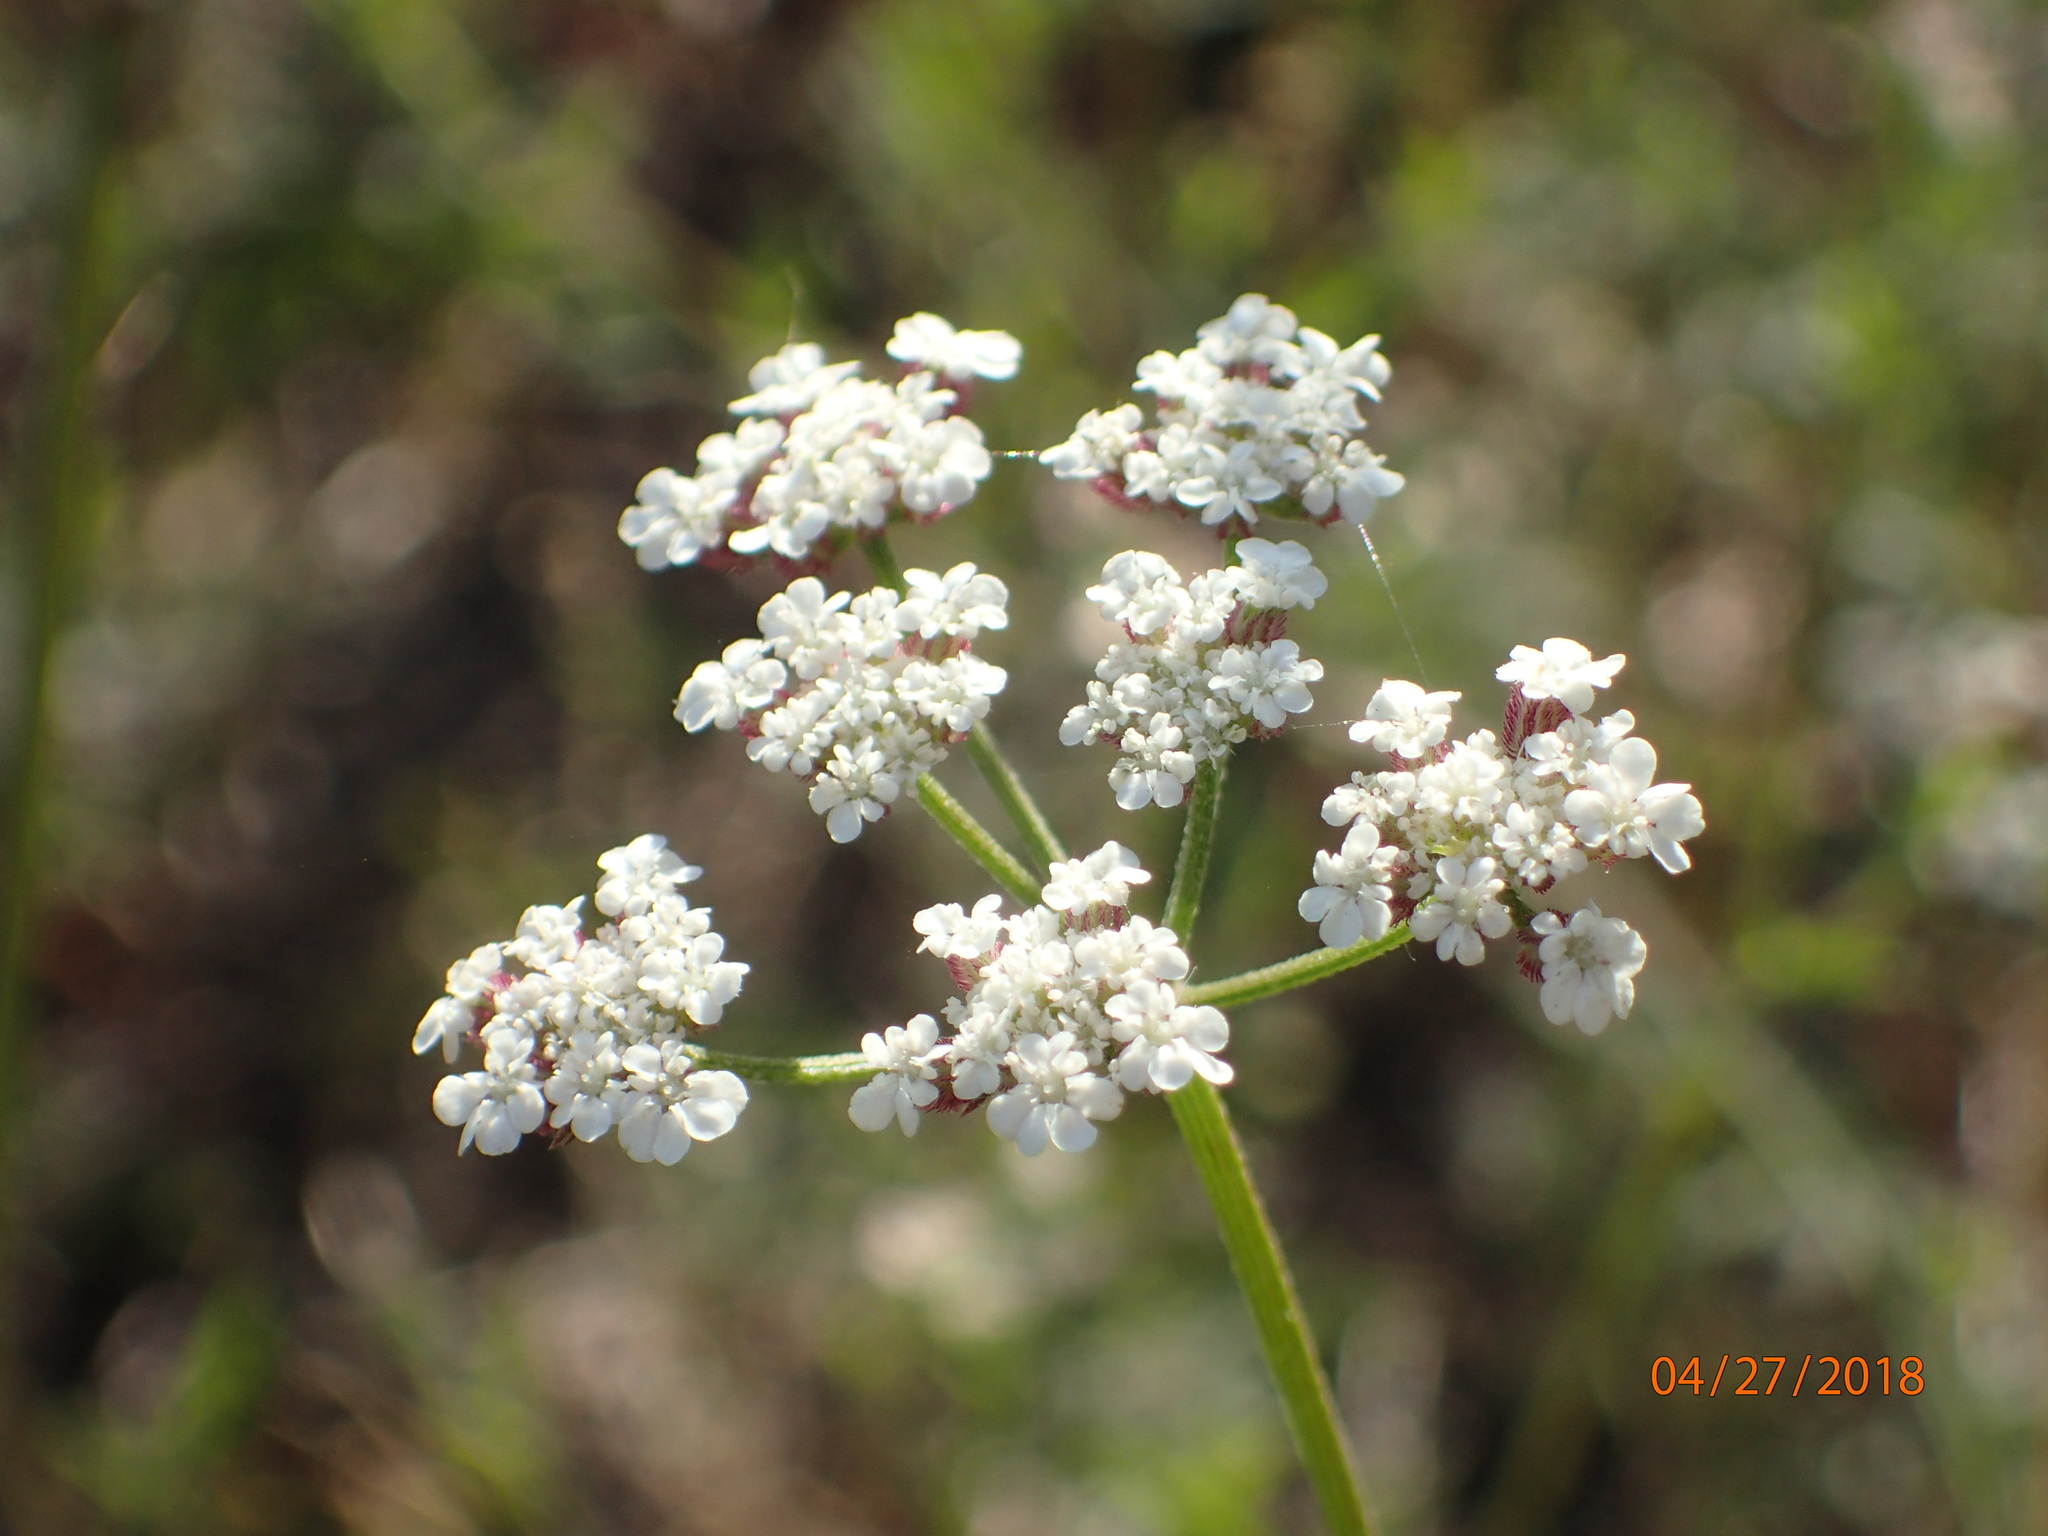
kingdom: Plantae
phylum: Tracheophyta
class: Magnoliopsida
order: Apiales
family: Apiaceae
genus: Torilis
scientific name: Torilis arvensis
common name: Spreading hedge-parsley
